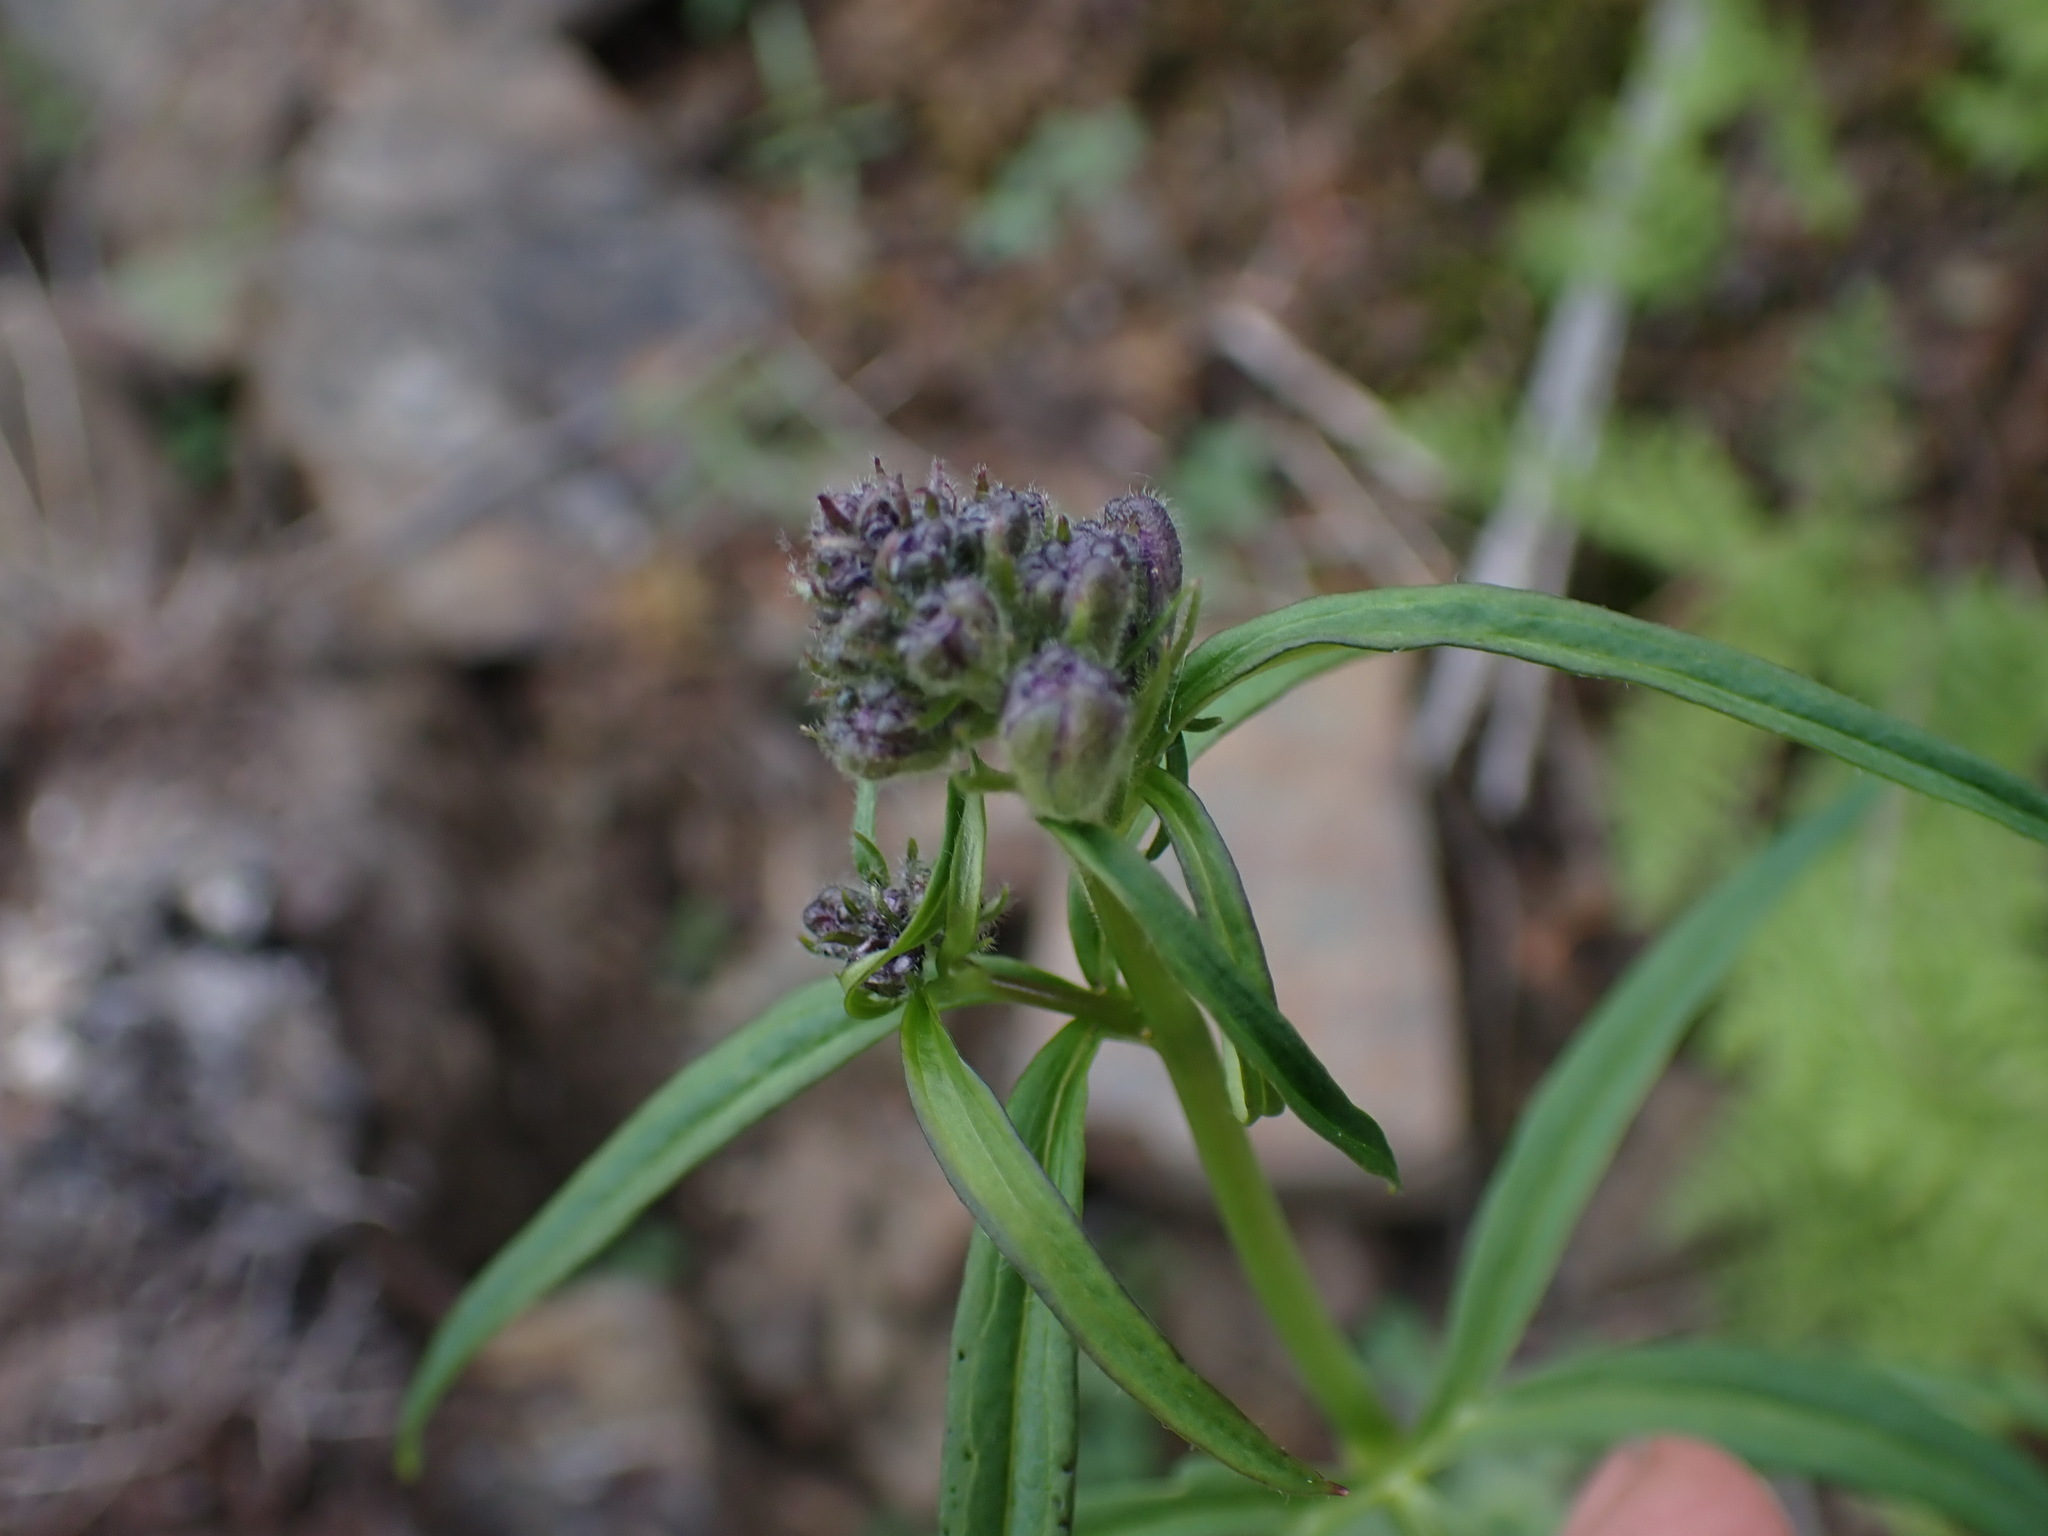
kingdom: Plantae
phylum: Tracheophyta
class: Magnoliopsida
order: Ranunculales
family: Ranunculaceae
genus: Delphinium
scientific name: Delphinium nuttallianum
